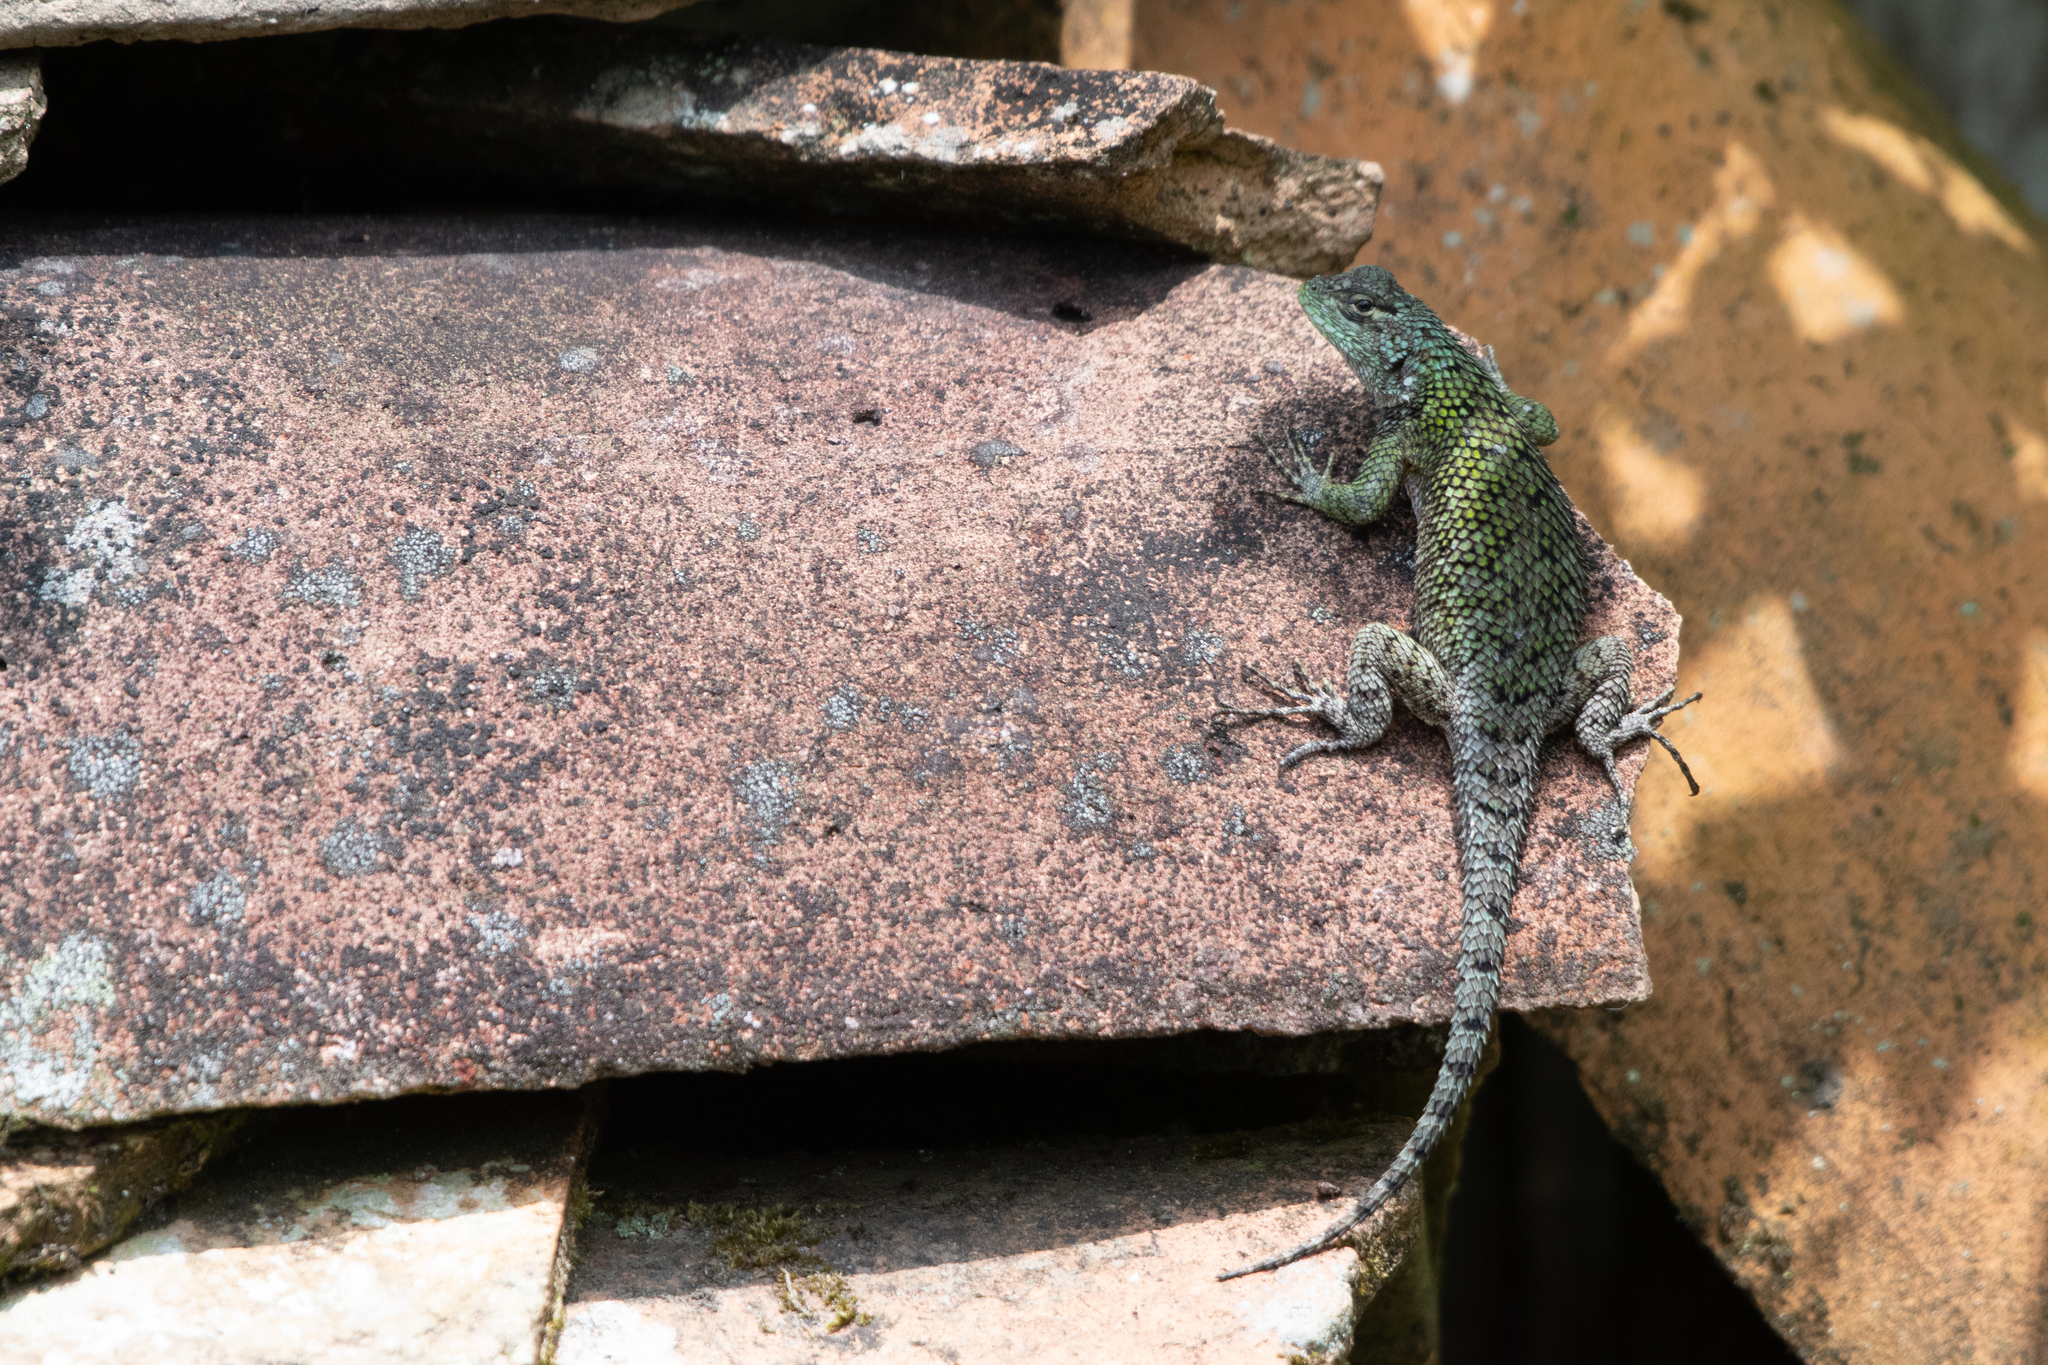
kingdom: Animalia
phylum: Chordata
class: Squamata
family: Phrynosomatidae
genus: Sceloporus
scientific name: Sceloporus esperanzae
